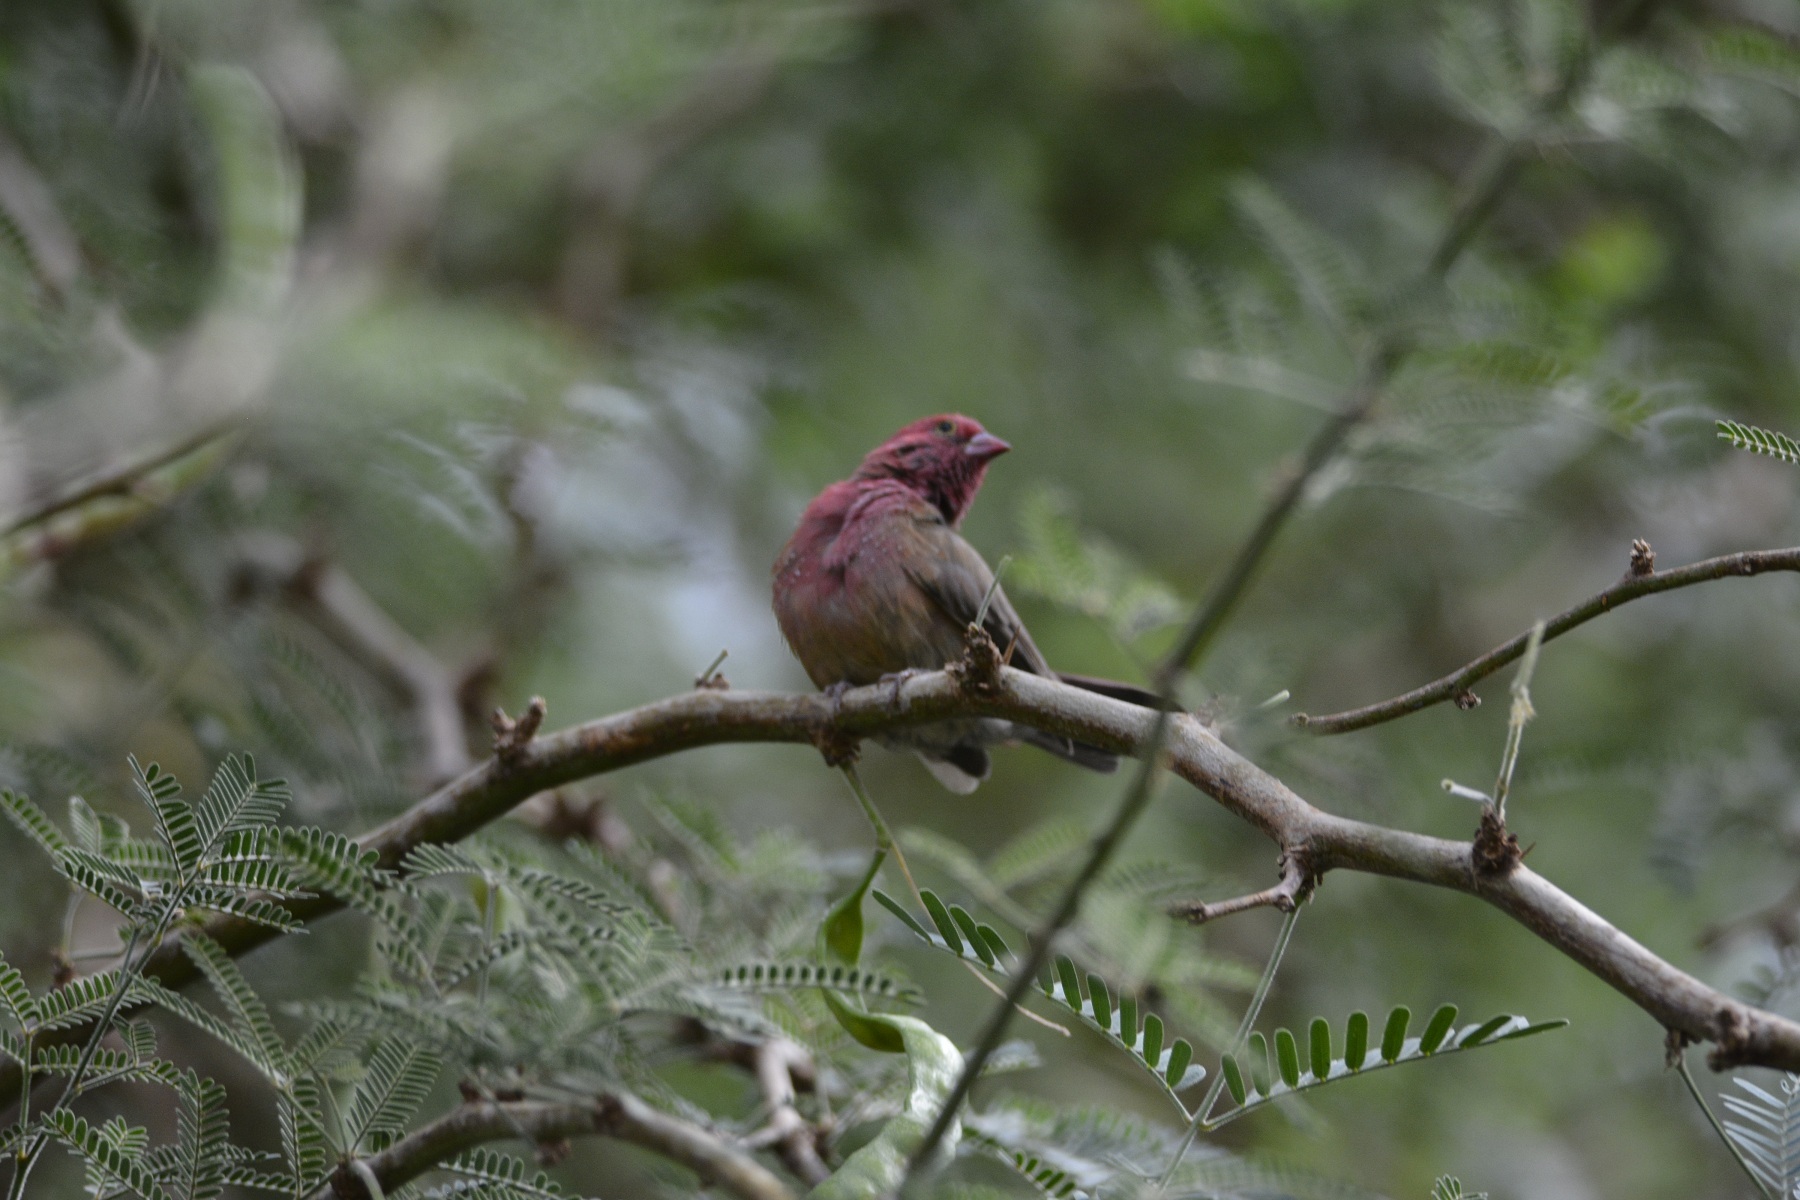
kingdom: Animalia
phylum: Chordata
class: Aves
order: Passeriformes
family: Estrildidae
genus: Lagonosticta
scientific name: Lagonosticta senegala
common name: Red-billed firefinch
